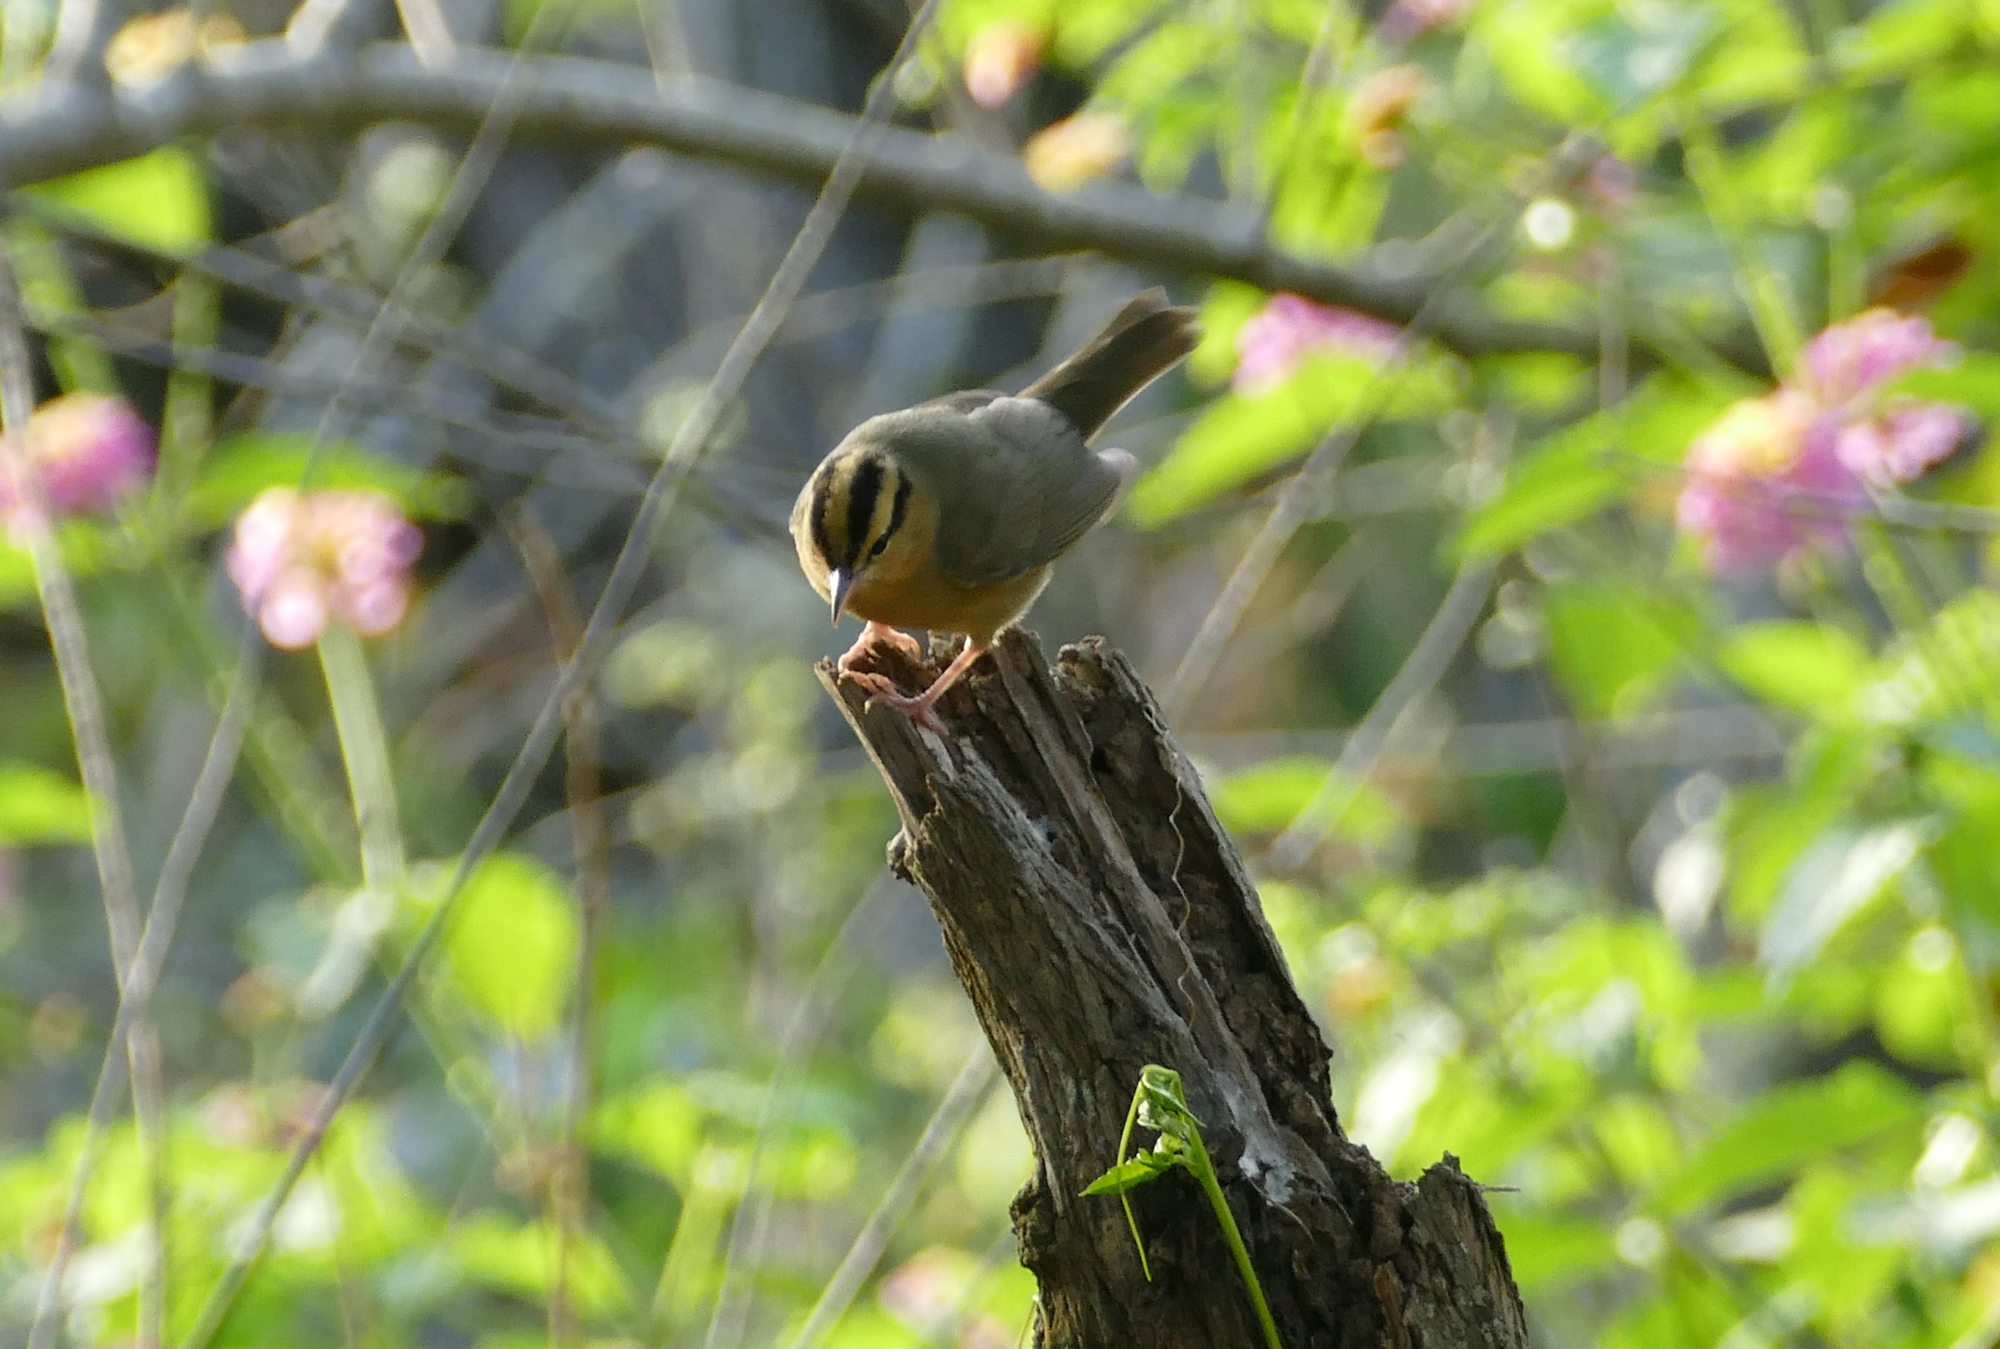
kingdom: Animalia
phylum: Chordata
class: Aves
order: Passeriformes
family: Parulidae
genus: Helmitheros
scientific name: Helmitheros vermivorum
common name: Worm-eating warbler
